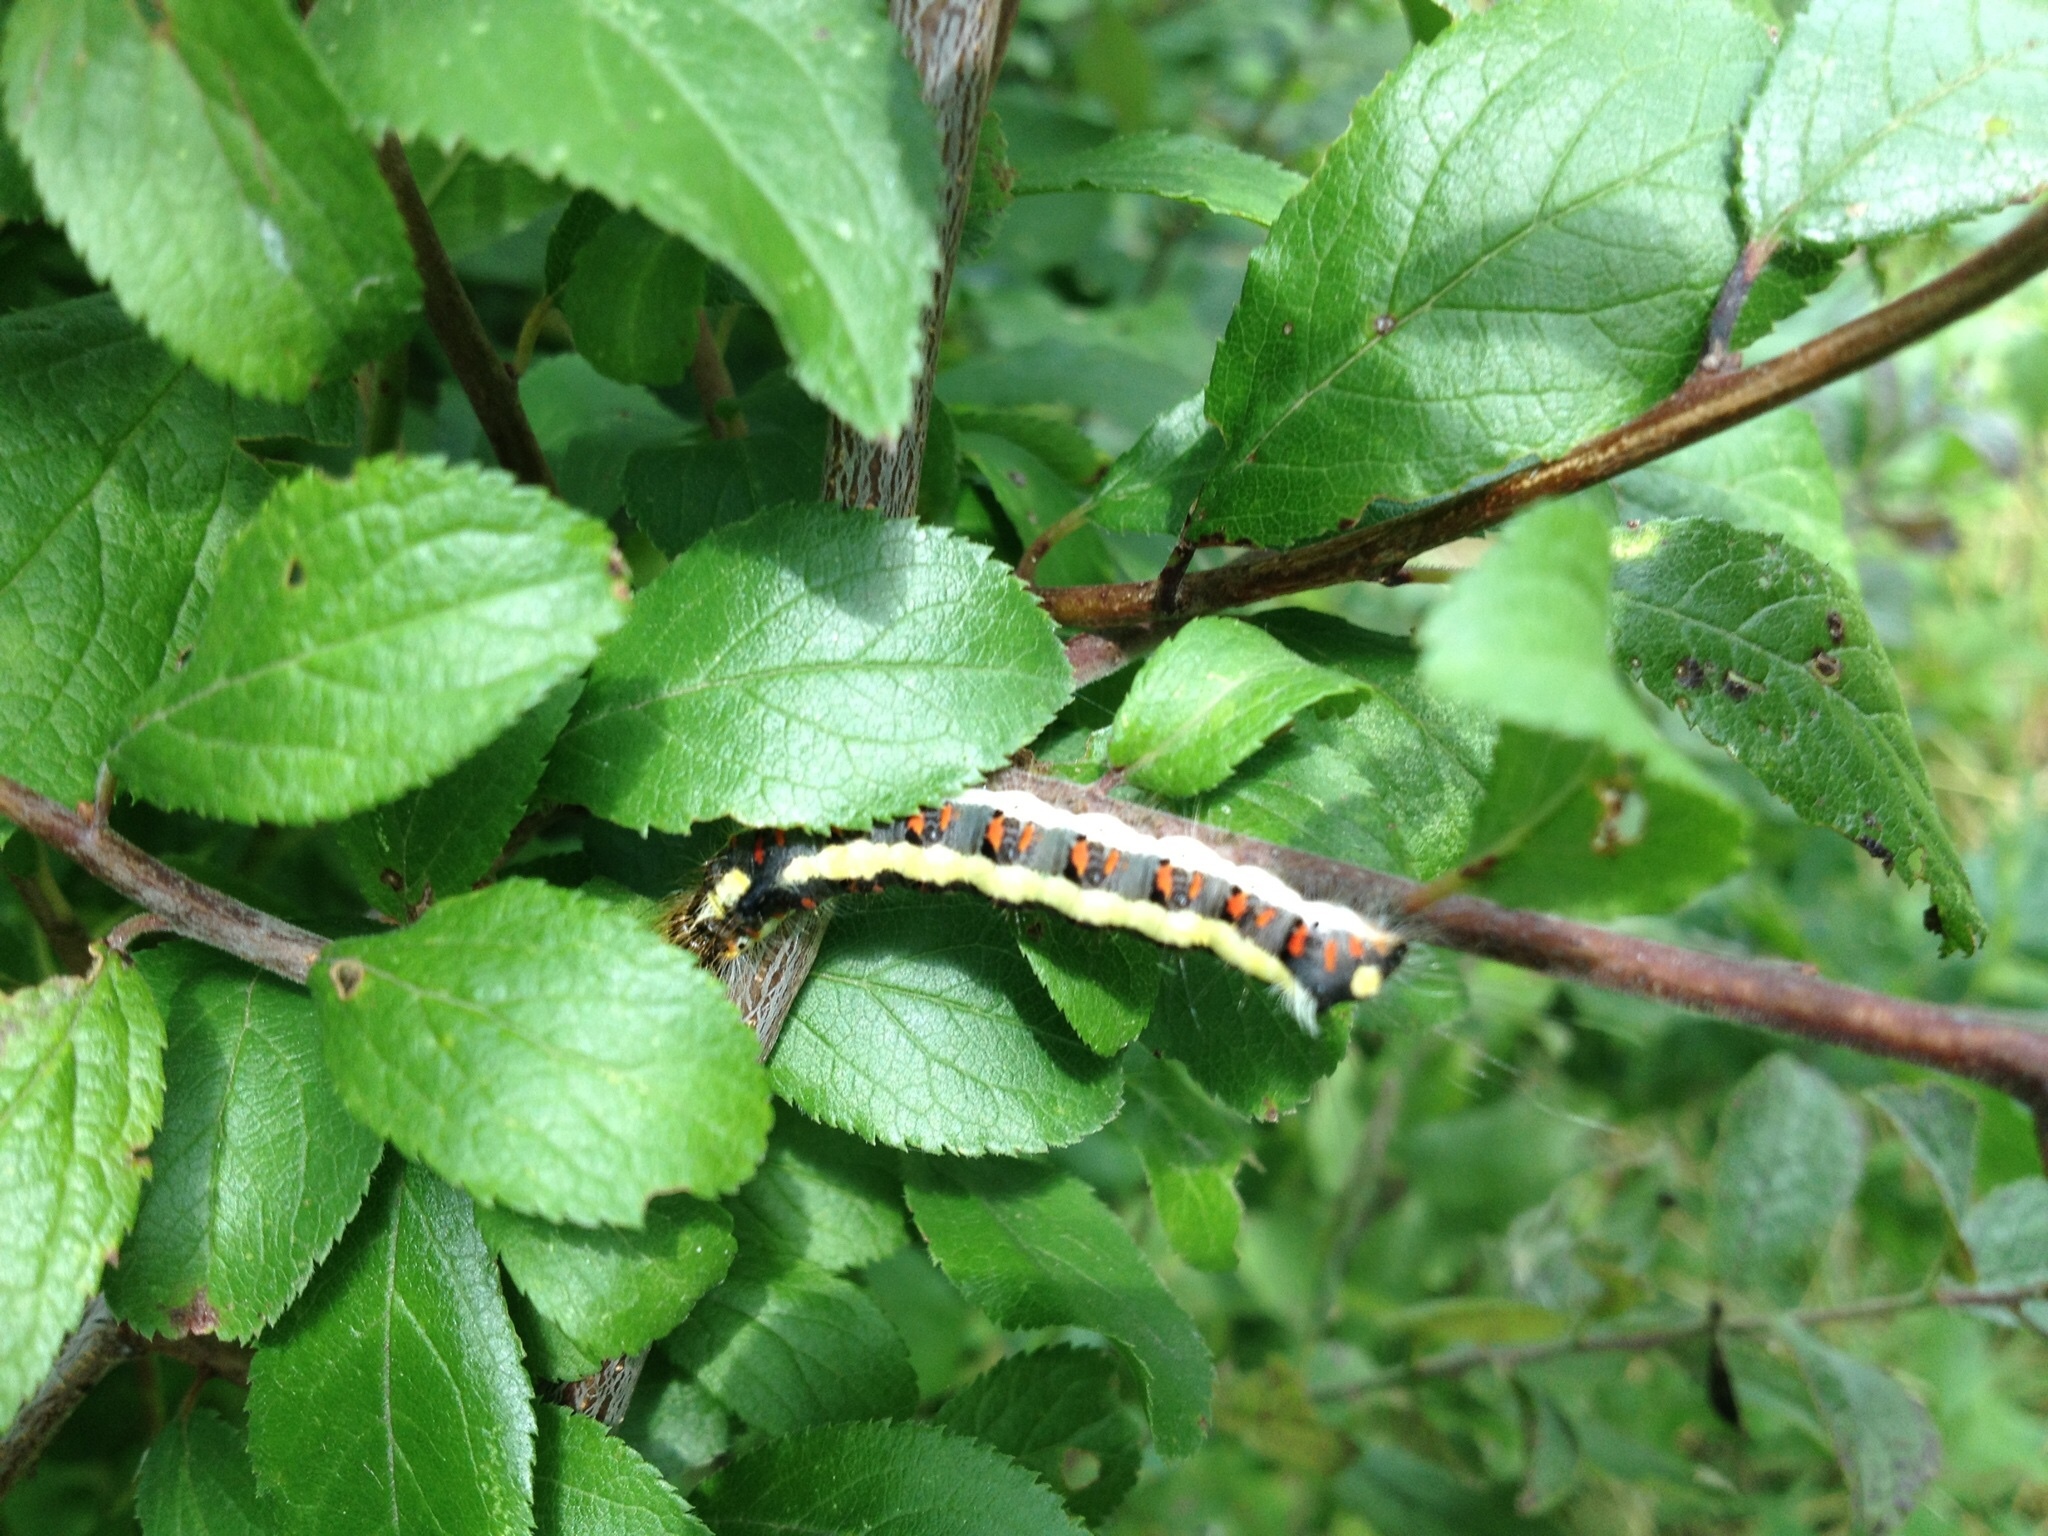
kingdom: Animalia
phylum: Arthropoda
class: Insecta
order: Lepidoptera
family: Noctuidae
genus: Acronicta
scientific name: Acronicta psi
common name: Grey dagger
